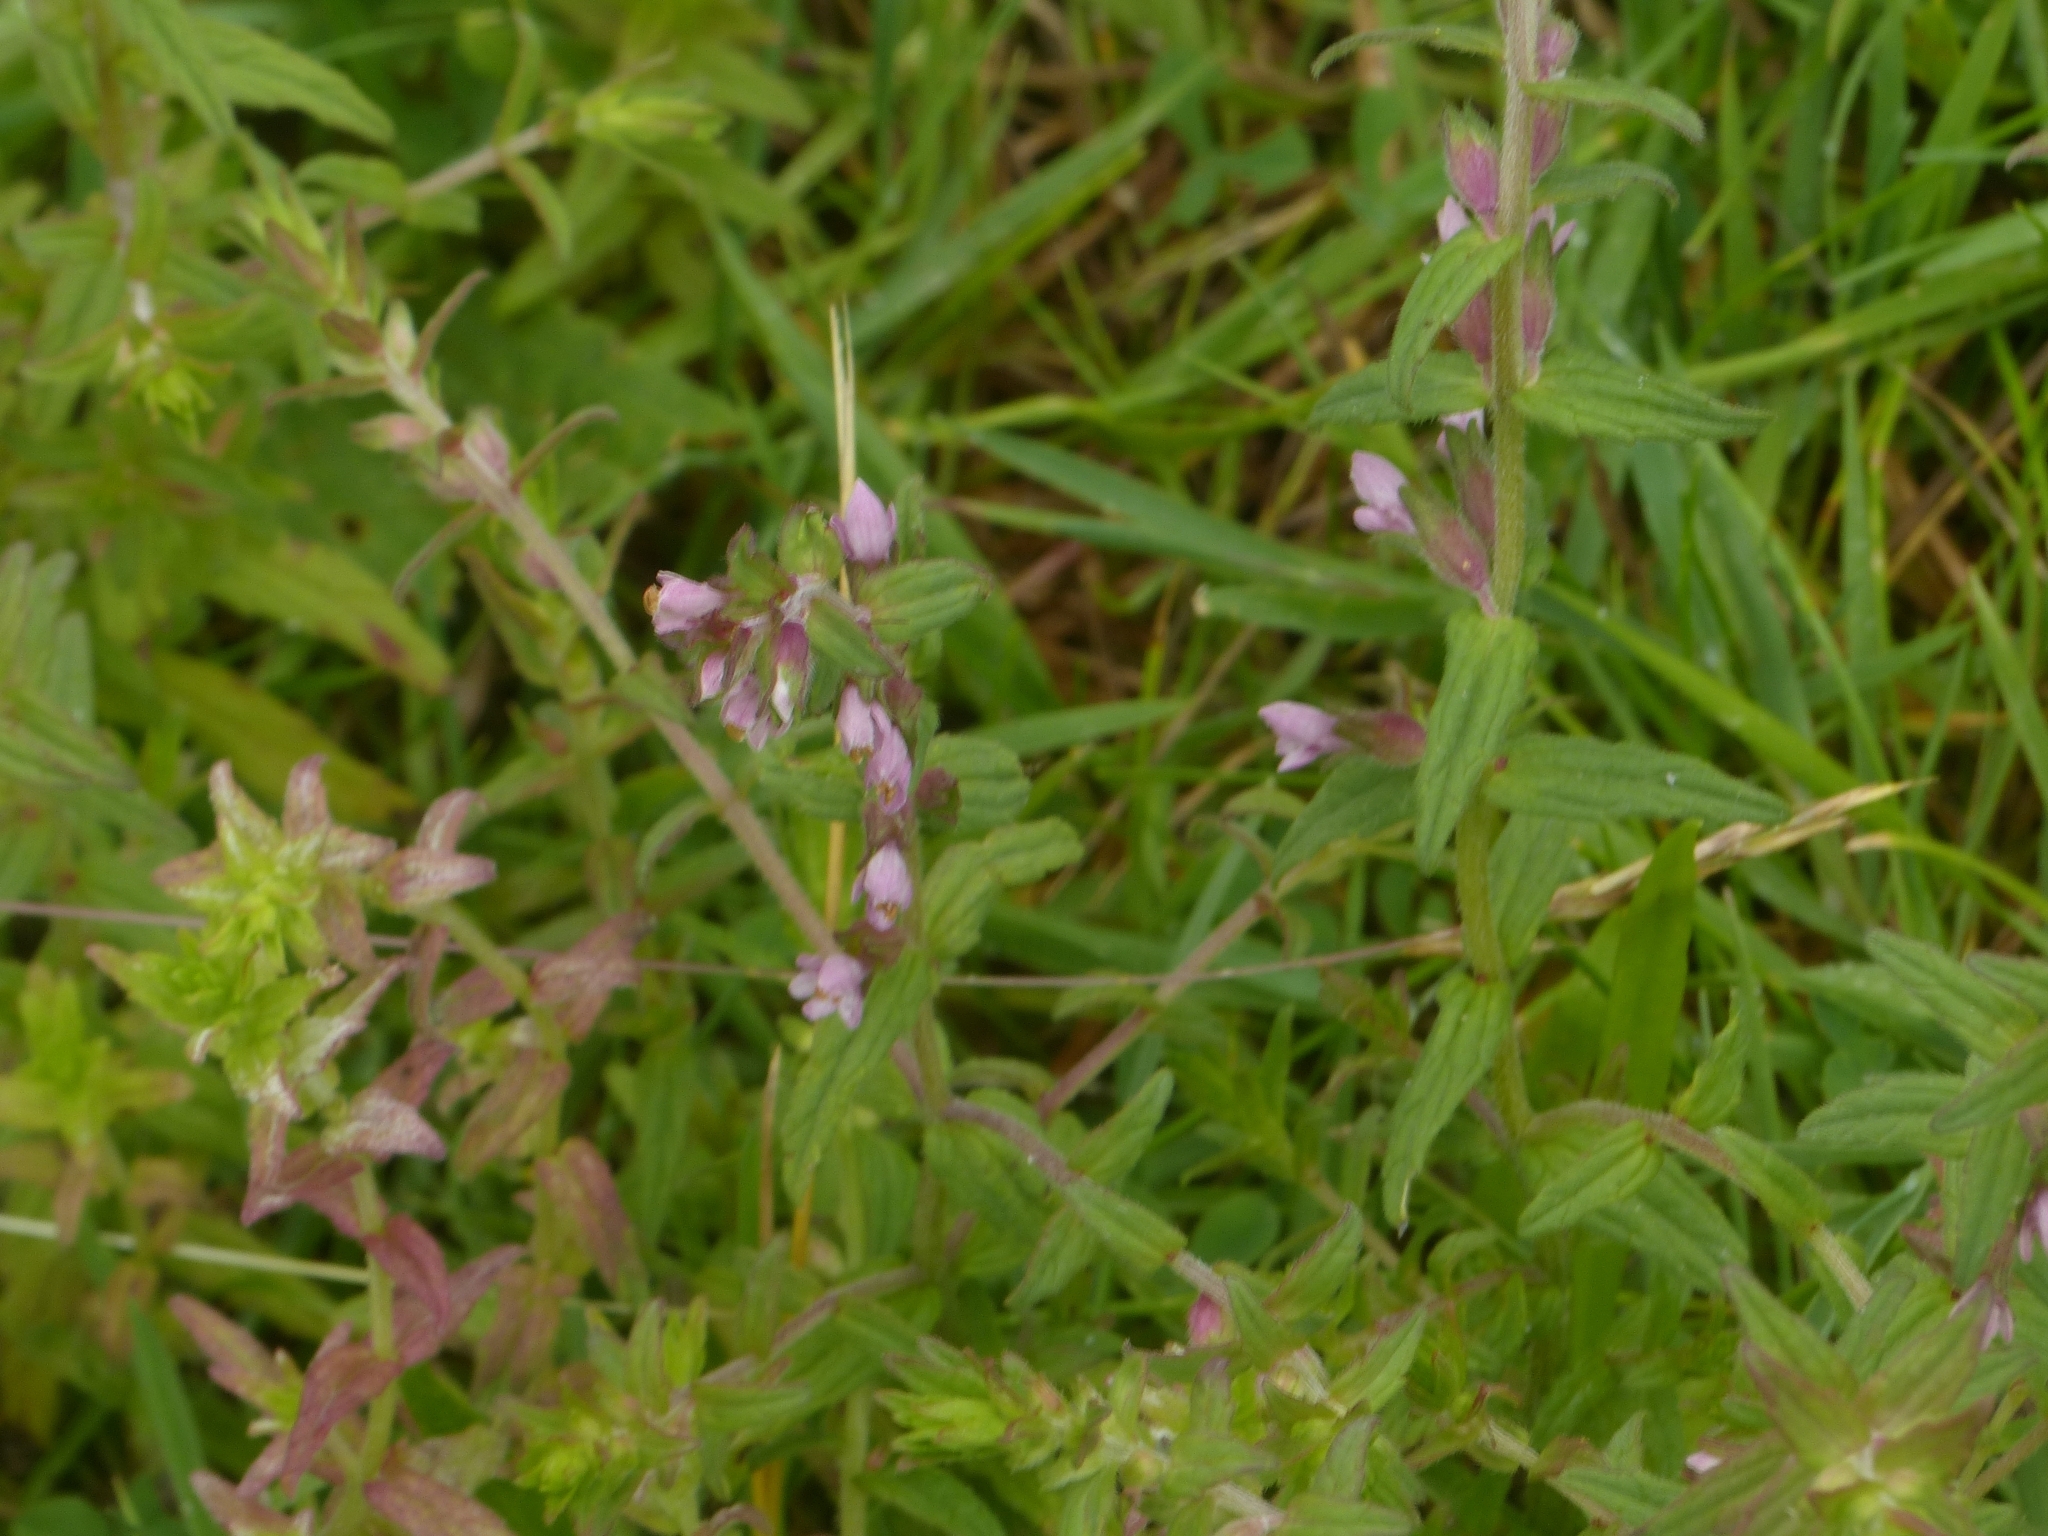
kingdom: Plantae
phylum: Tracheophyta
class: Magnoliopsida
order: Lamiales
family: Orobanchaceae
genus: Odontites
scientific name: Odontites vernus
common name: Red bartsia
